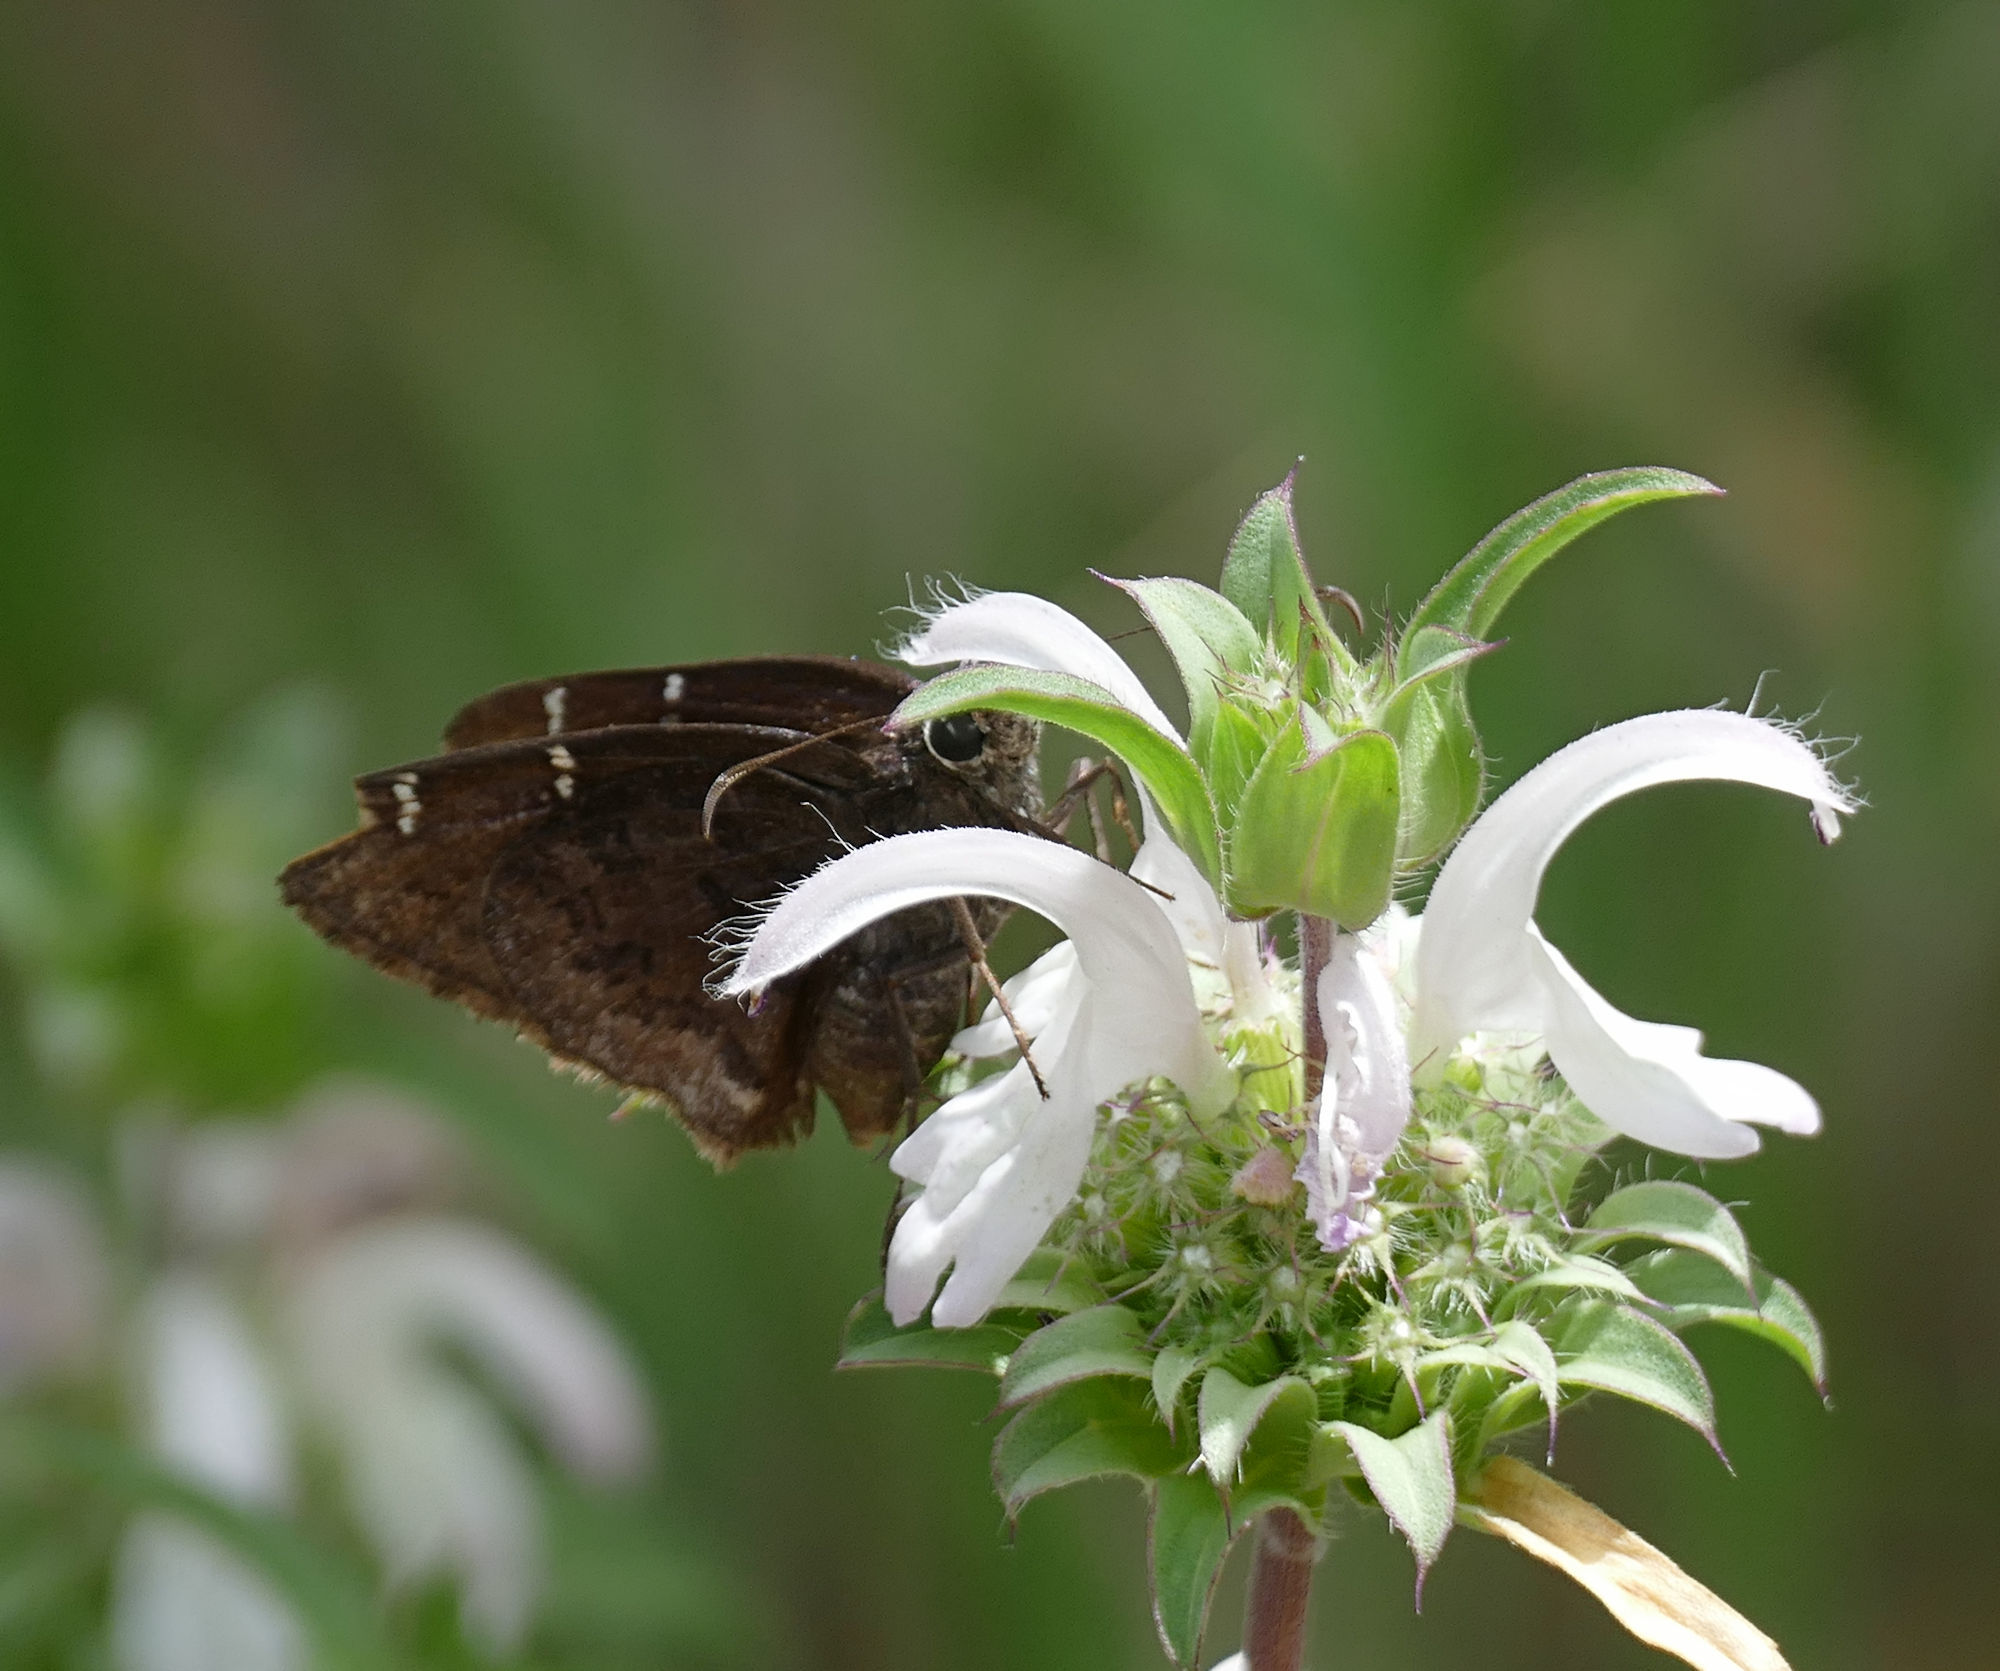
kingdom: Animalia
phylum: Arthropoda
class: Insecta
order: Lepidoptera
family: Hesperiidae
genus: Thorybes
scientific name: Thorybes pylades
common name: Northern cloudywing
